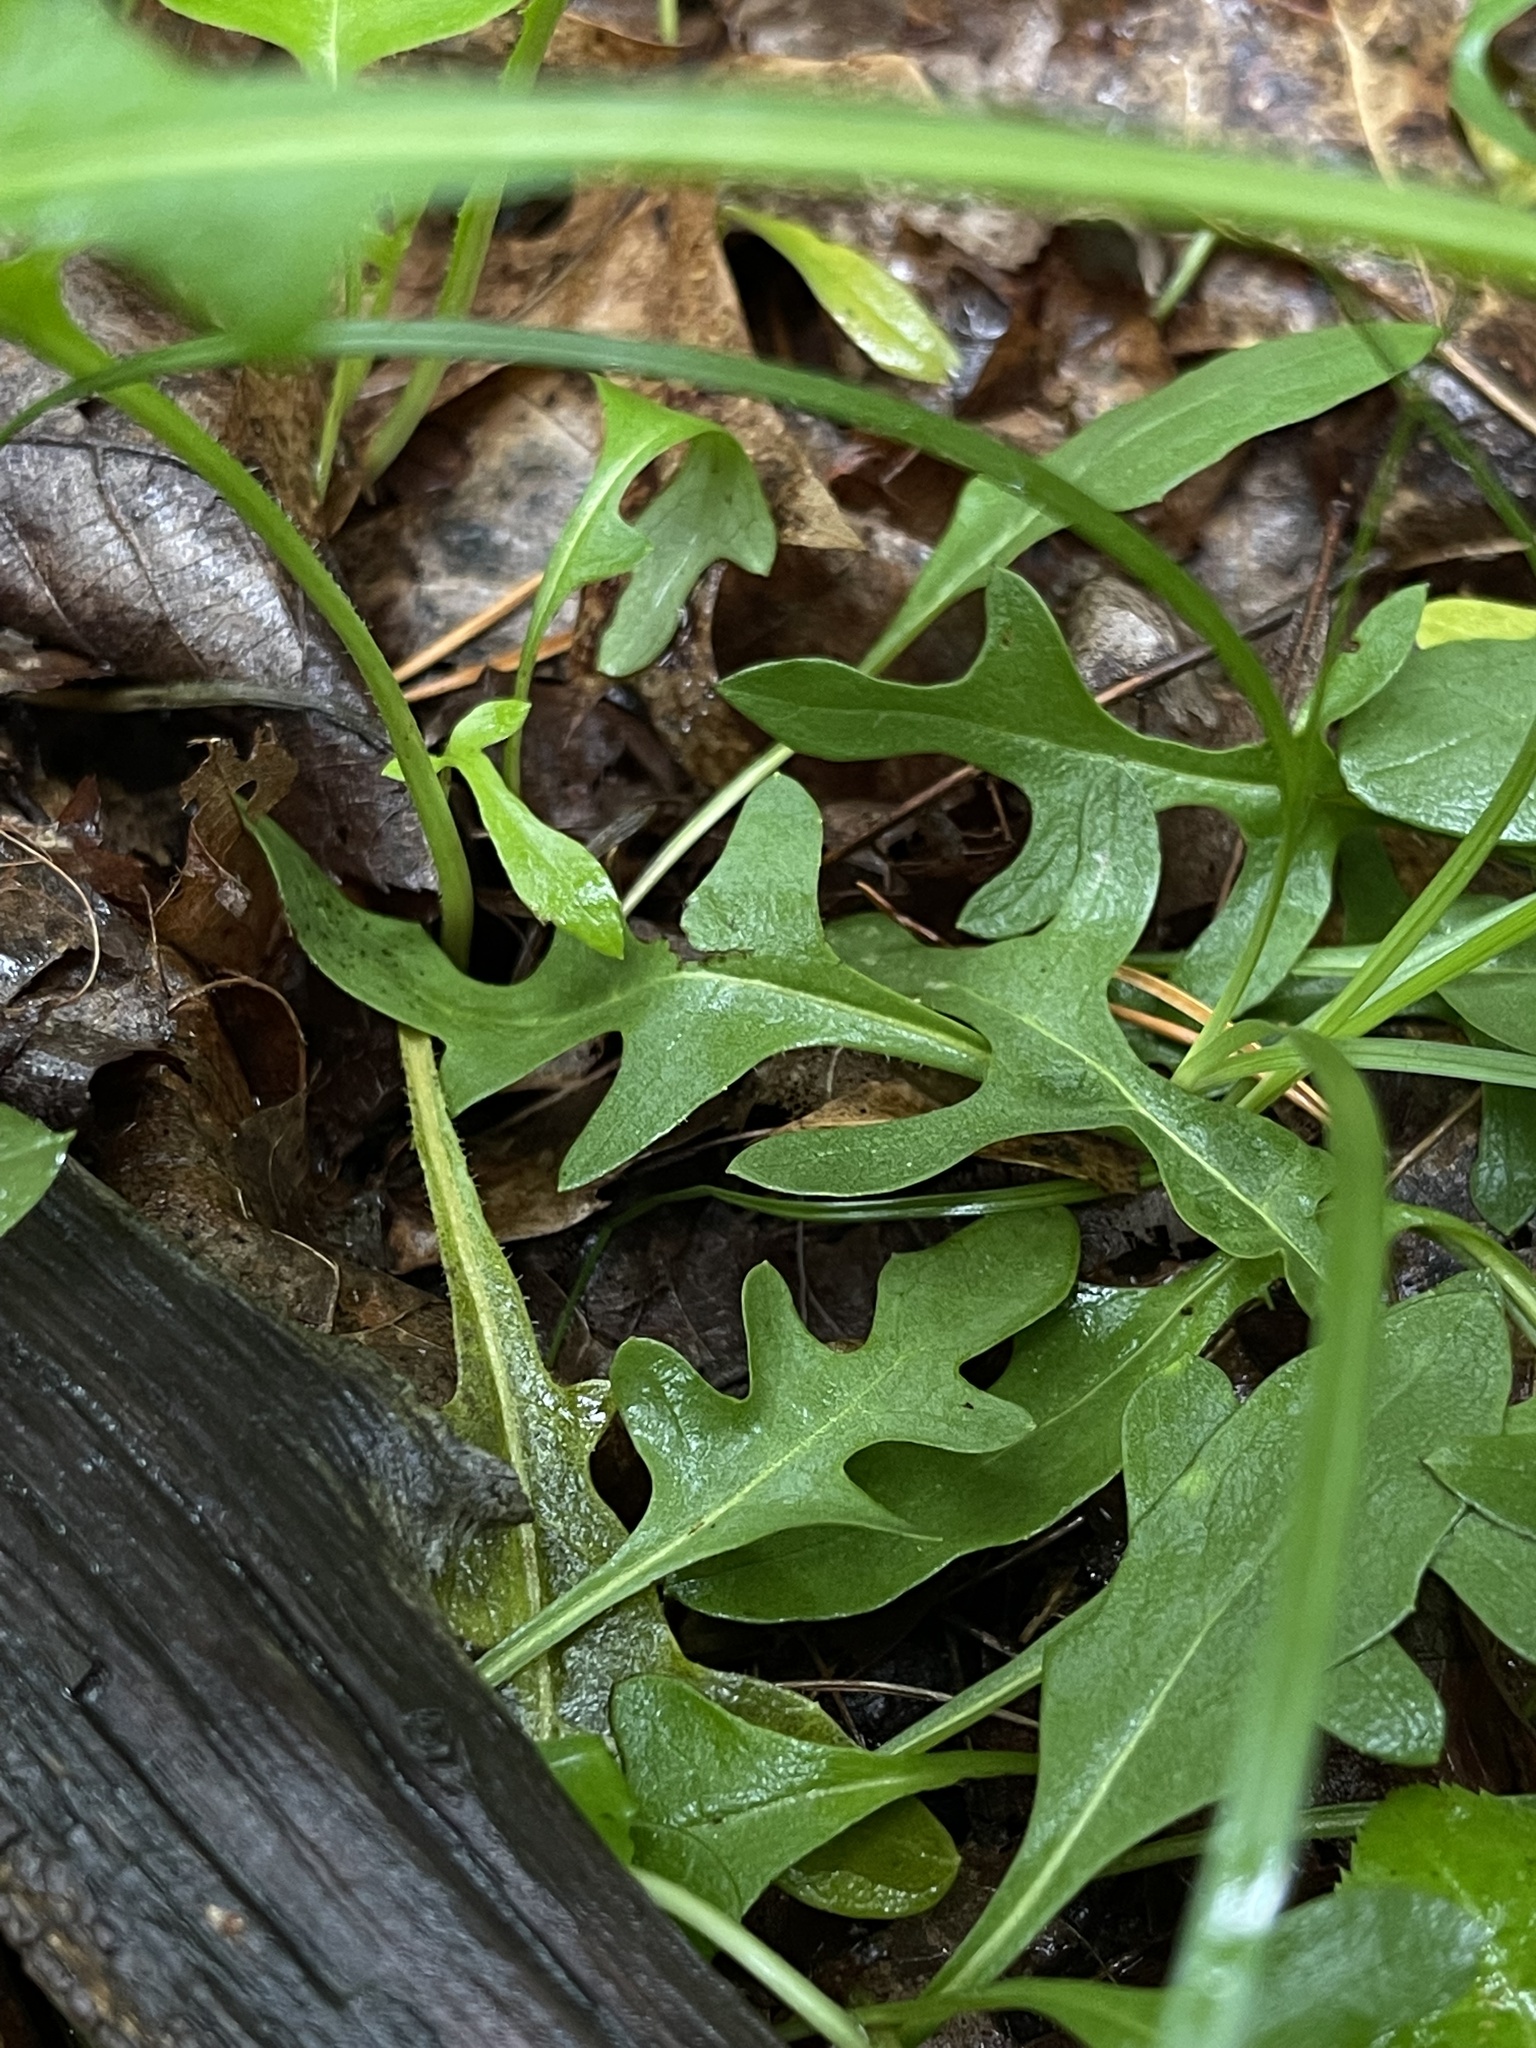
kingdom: Plantae
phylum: Tracheophyta
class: Magnoliopsida
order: Asterales
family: Asteraceae
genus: Nabalus
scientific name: Nabalus serpentarius
